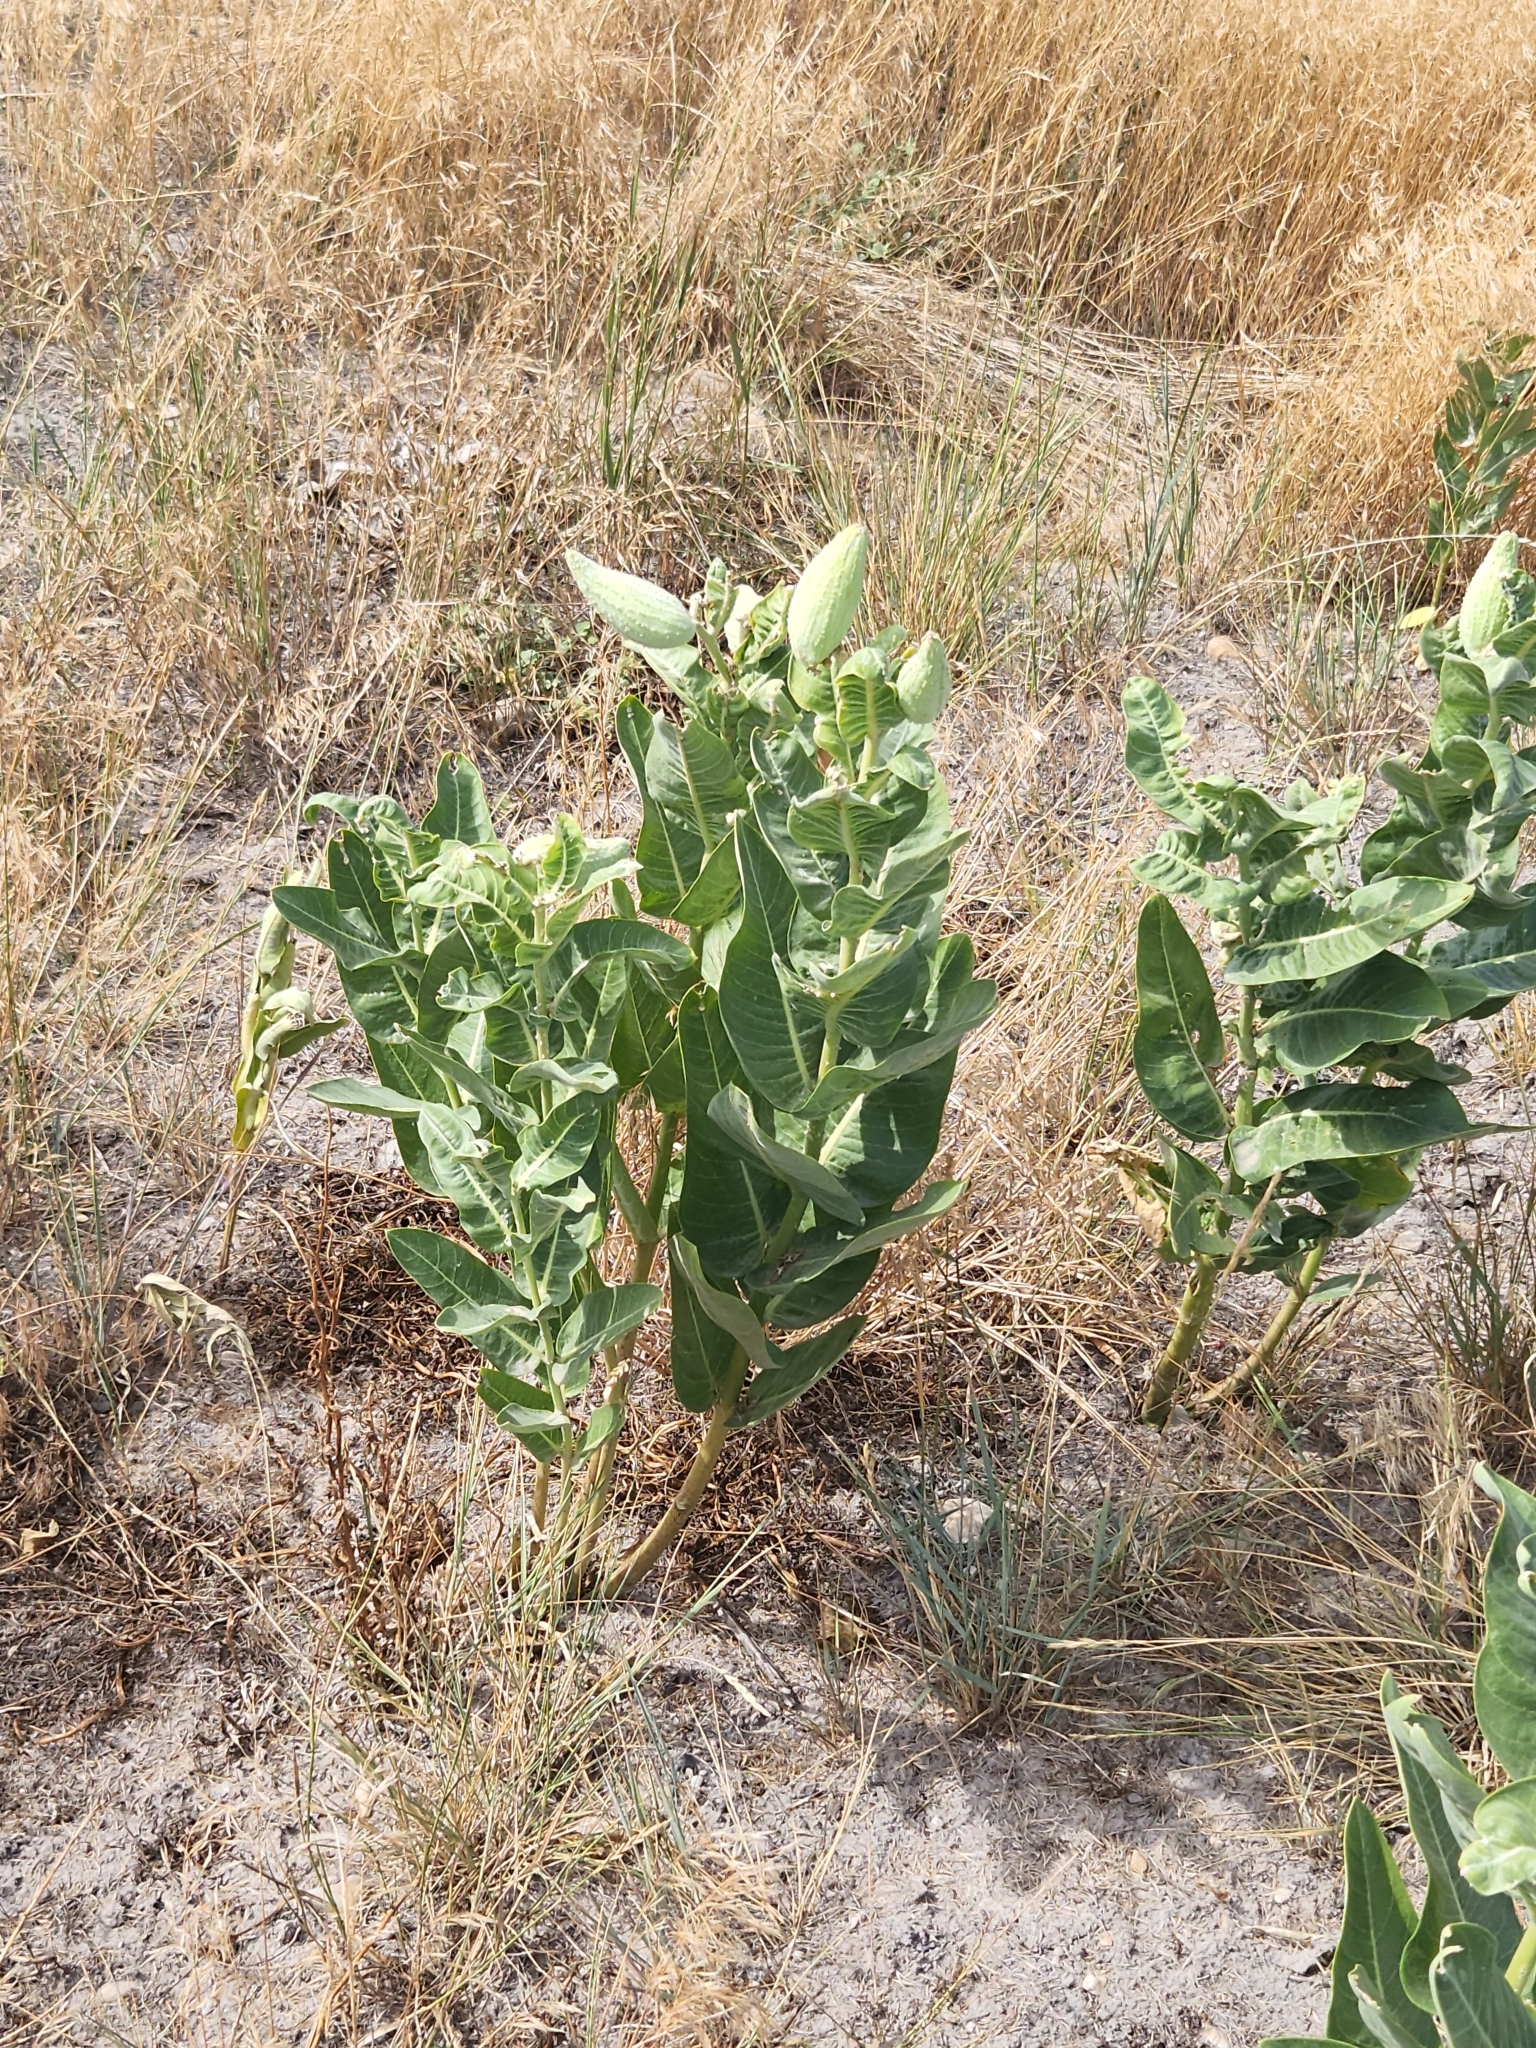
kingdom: Plantae
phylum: Tracheophyta
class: Magnoliopsida
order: Gentianales
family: Apocynaceae
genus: Asclepias
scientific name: Asclepias speciosa
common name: Showy milkweed
